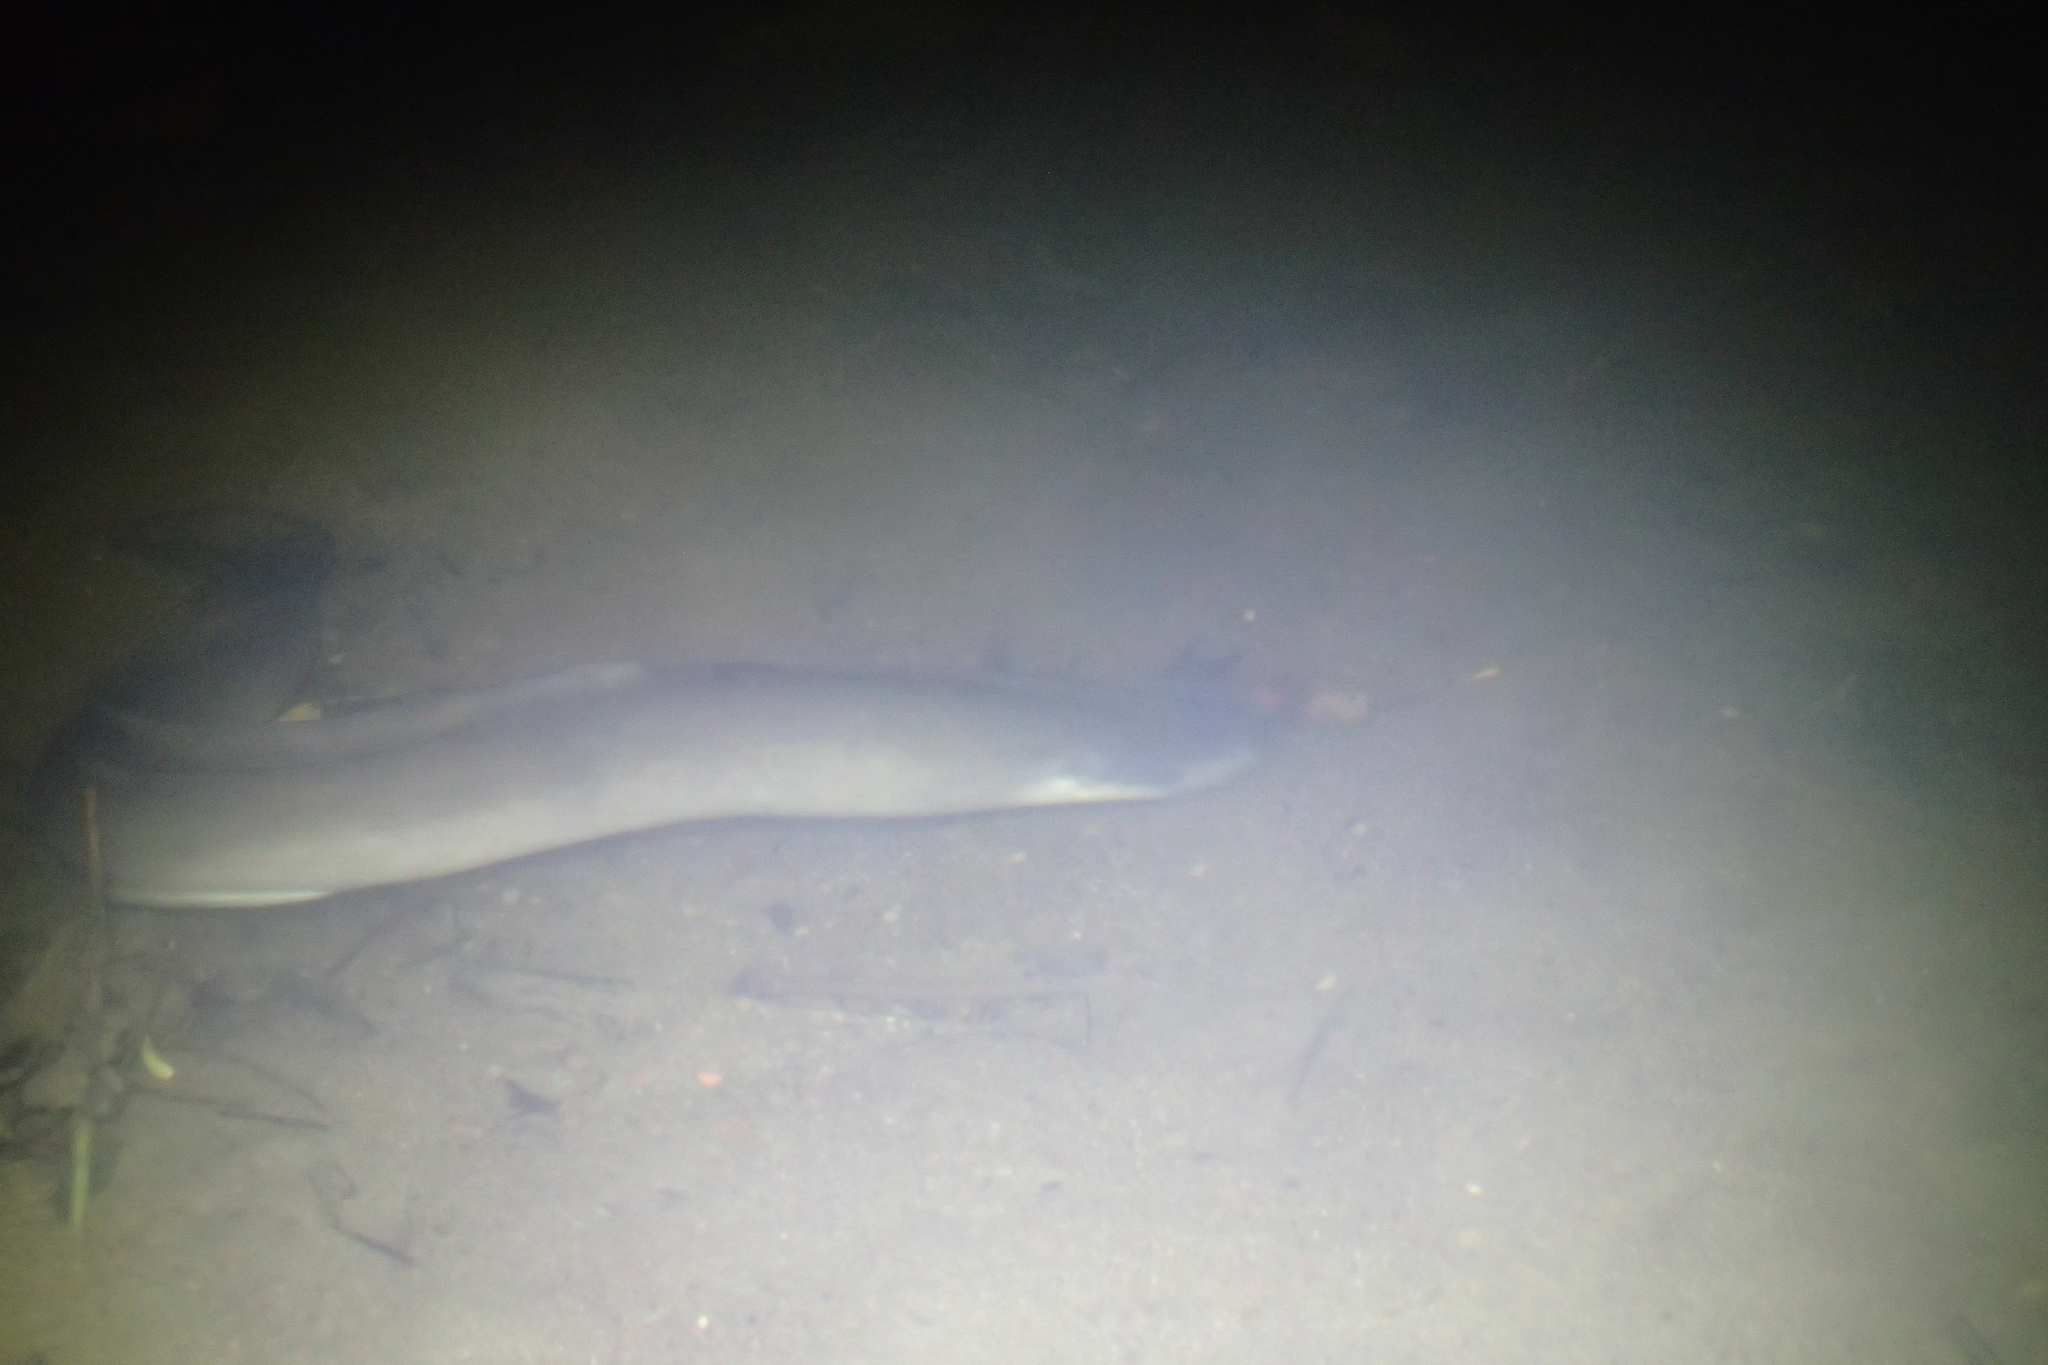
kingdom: Animalia
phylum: Chordata
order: Anguilliformes
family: Anguillidae
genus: Anguilla
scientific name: Anguilla dieffenbachii
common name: New zealand longfin eel
